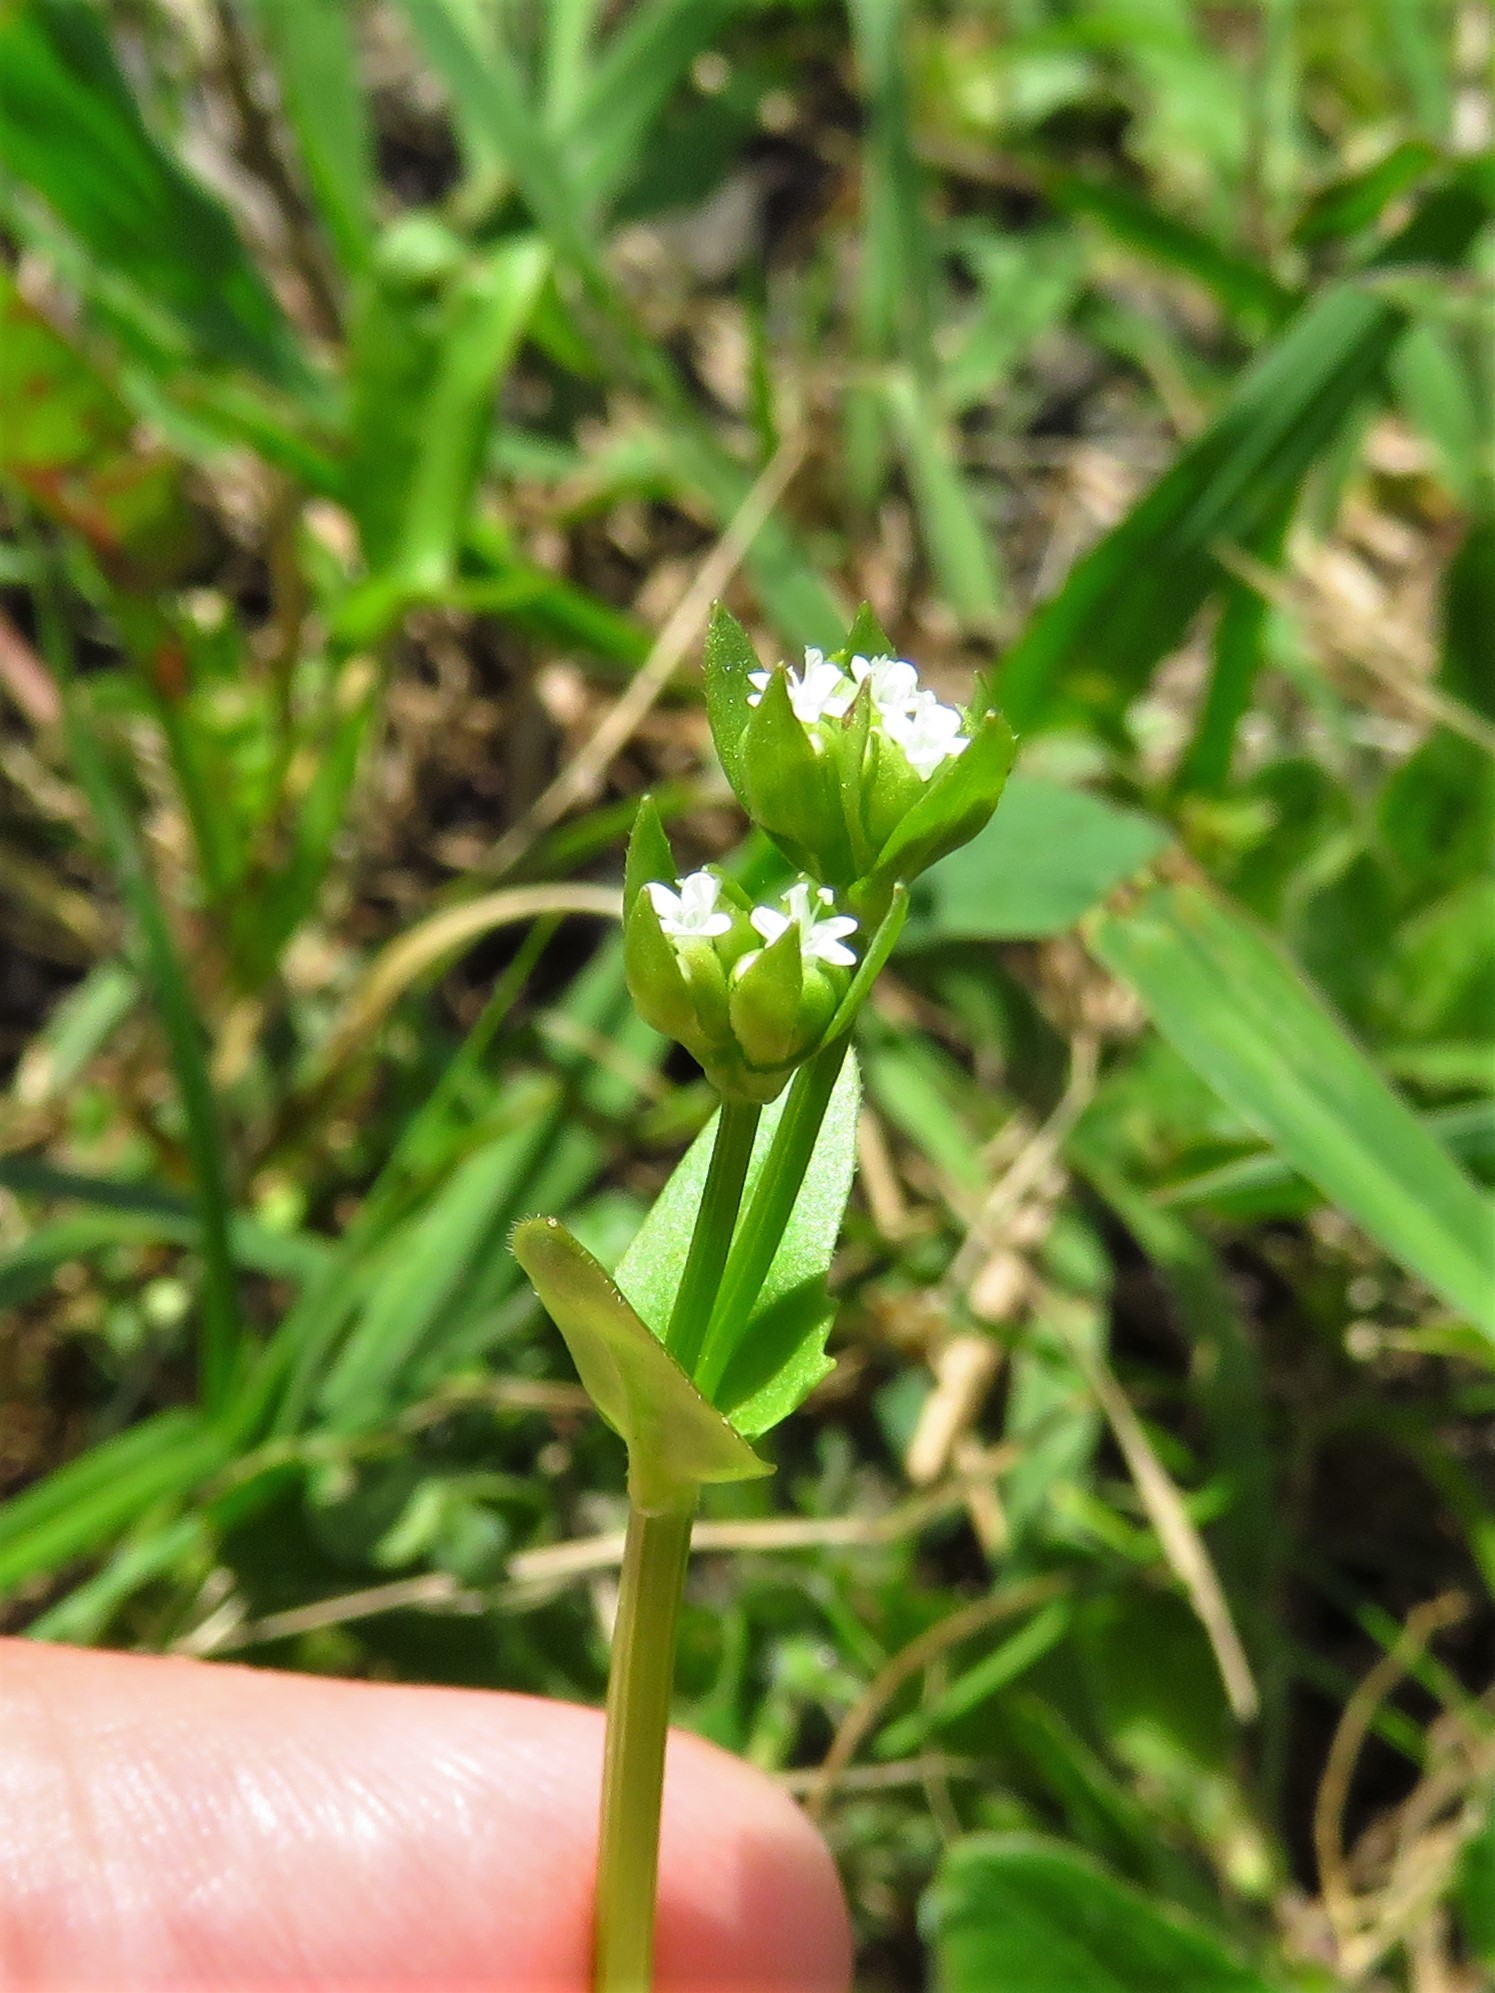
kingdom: Plantae
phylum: Tracheophyta
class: Magnoliopsida
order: Dipsacales
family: Caprifoliaceae
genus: Valerianella
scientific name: Valerianella radiata
